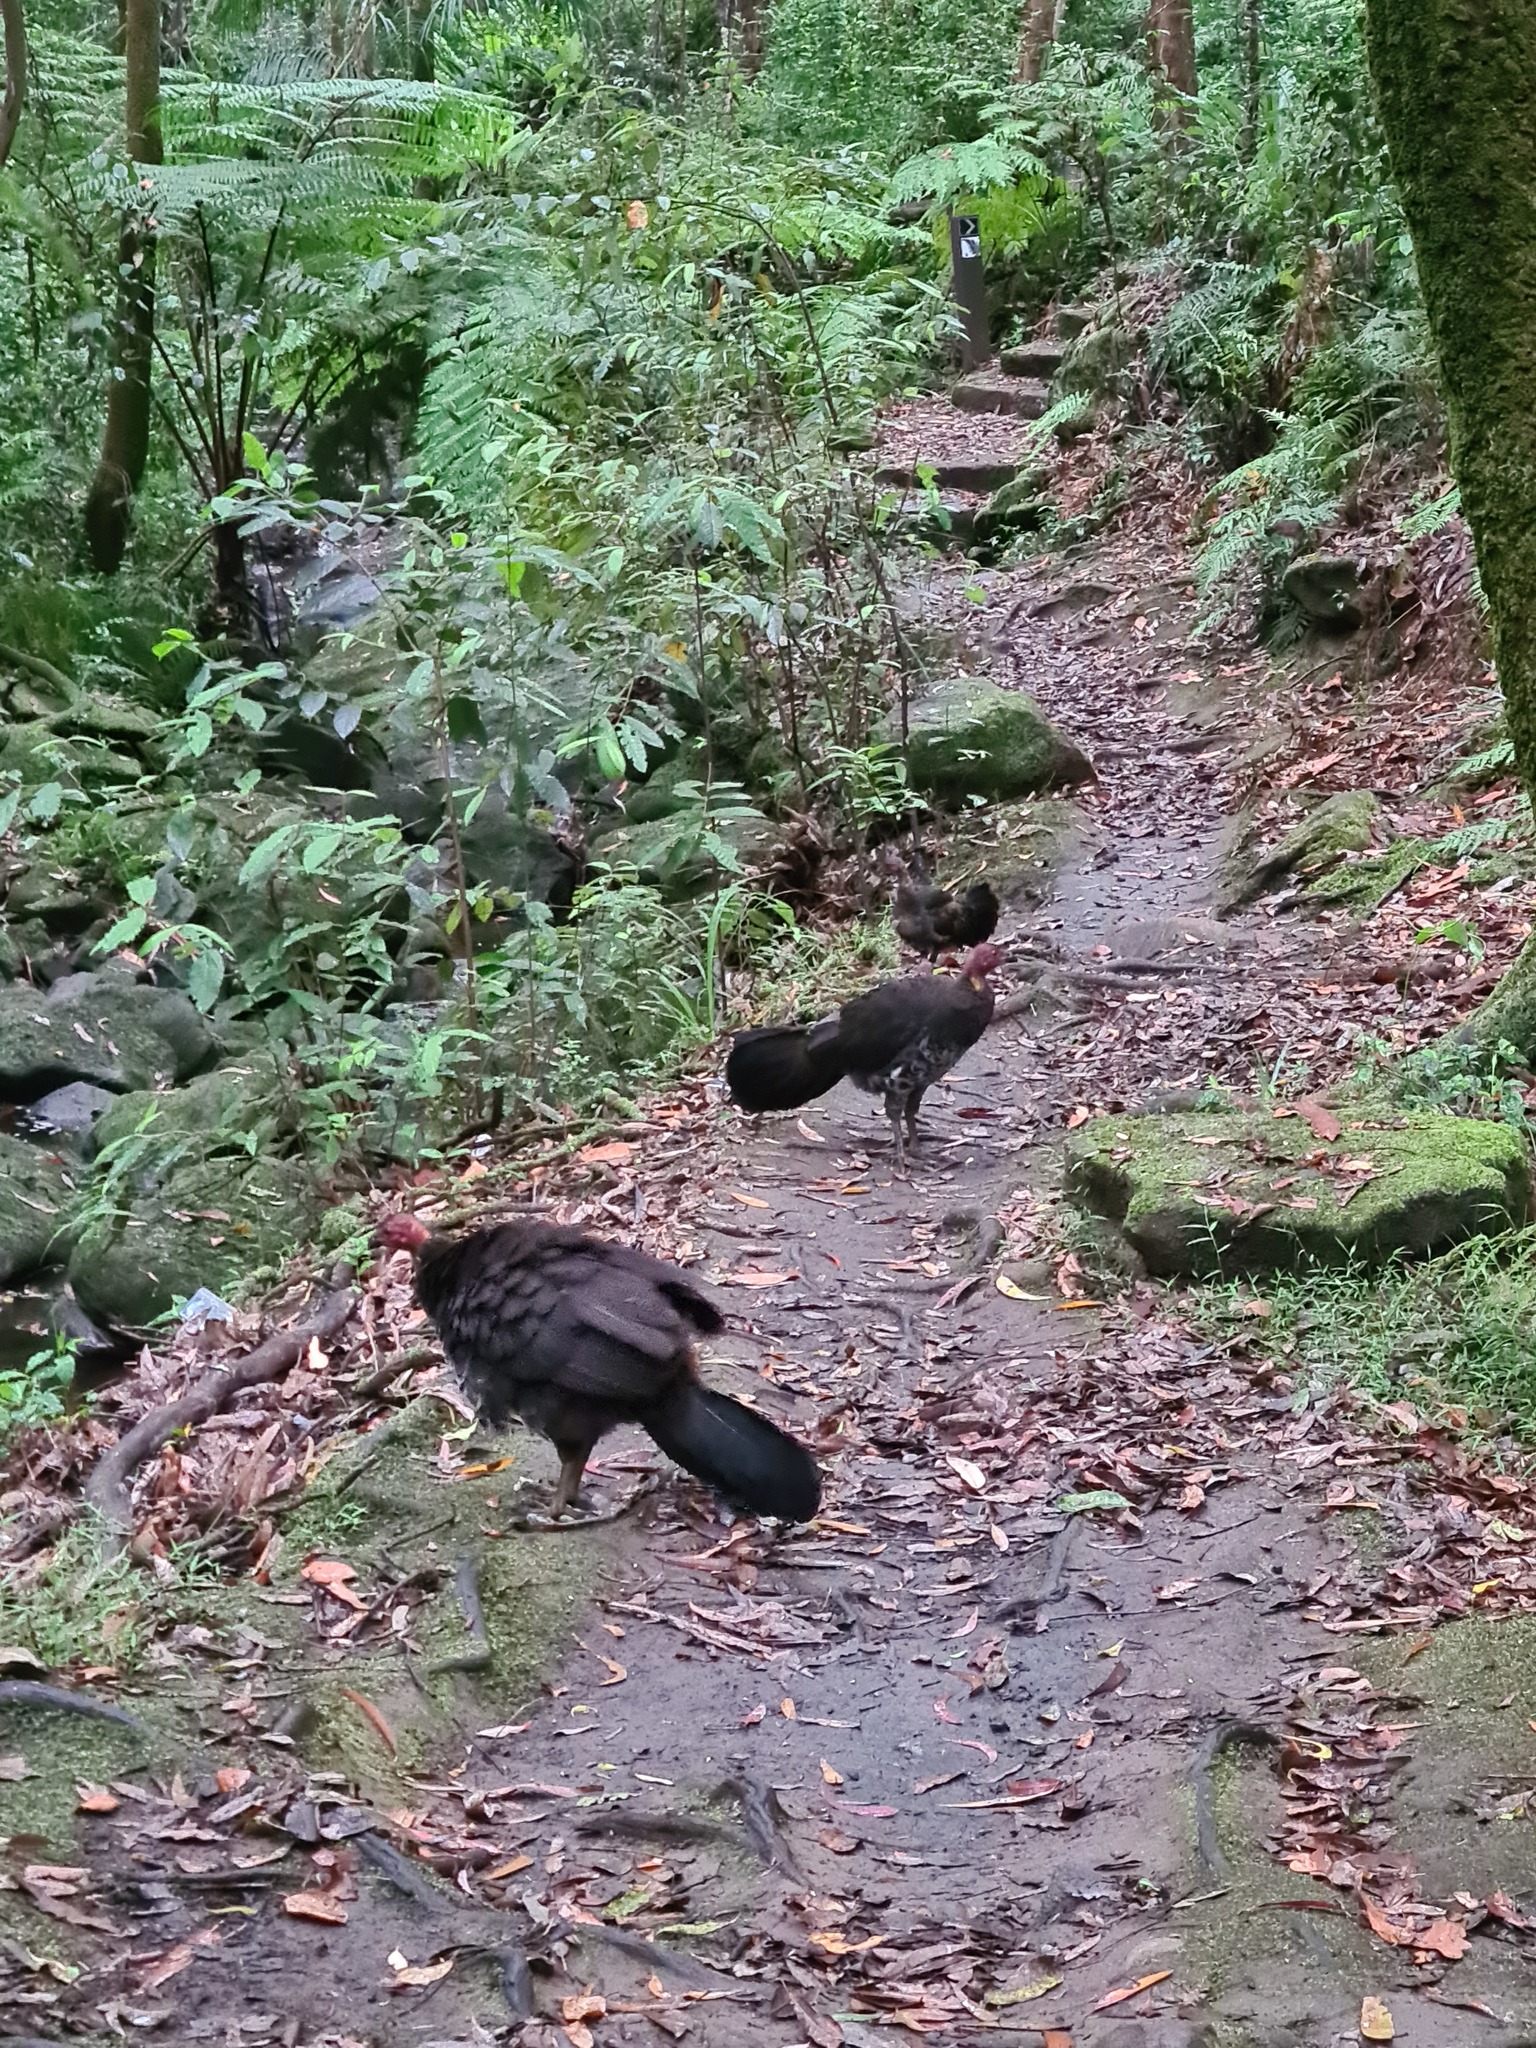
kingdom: Animalia
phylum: Chordata
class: Aves
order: Galliformes
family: Megapodiidae
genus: Alectura
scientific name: Alectura lathami
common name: Australian brushturkey
